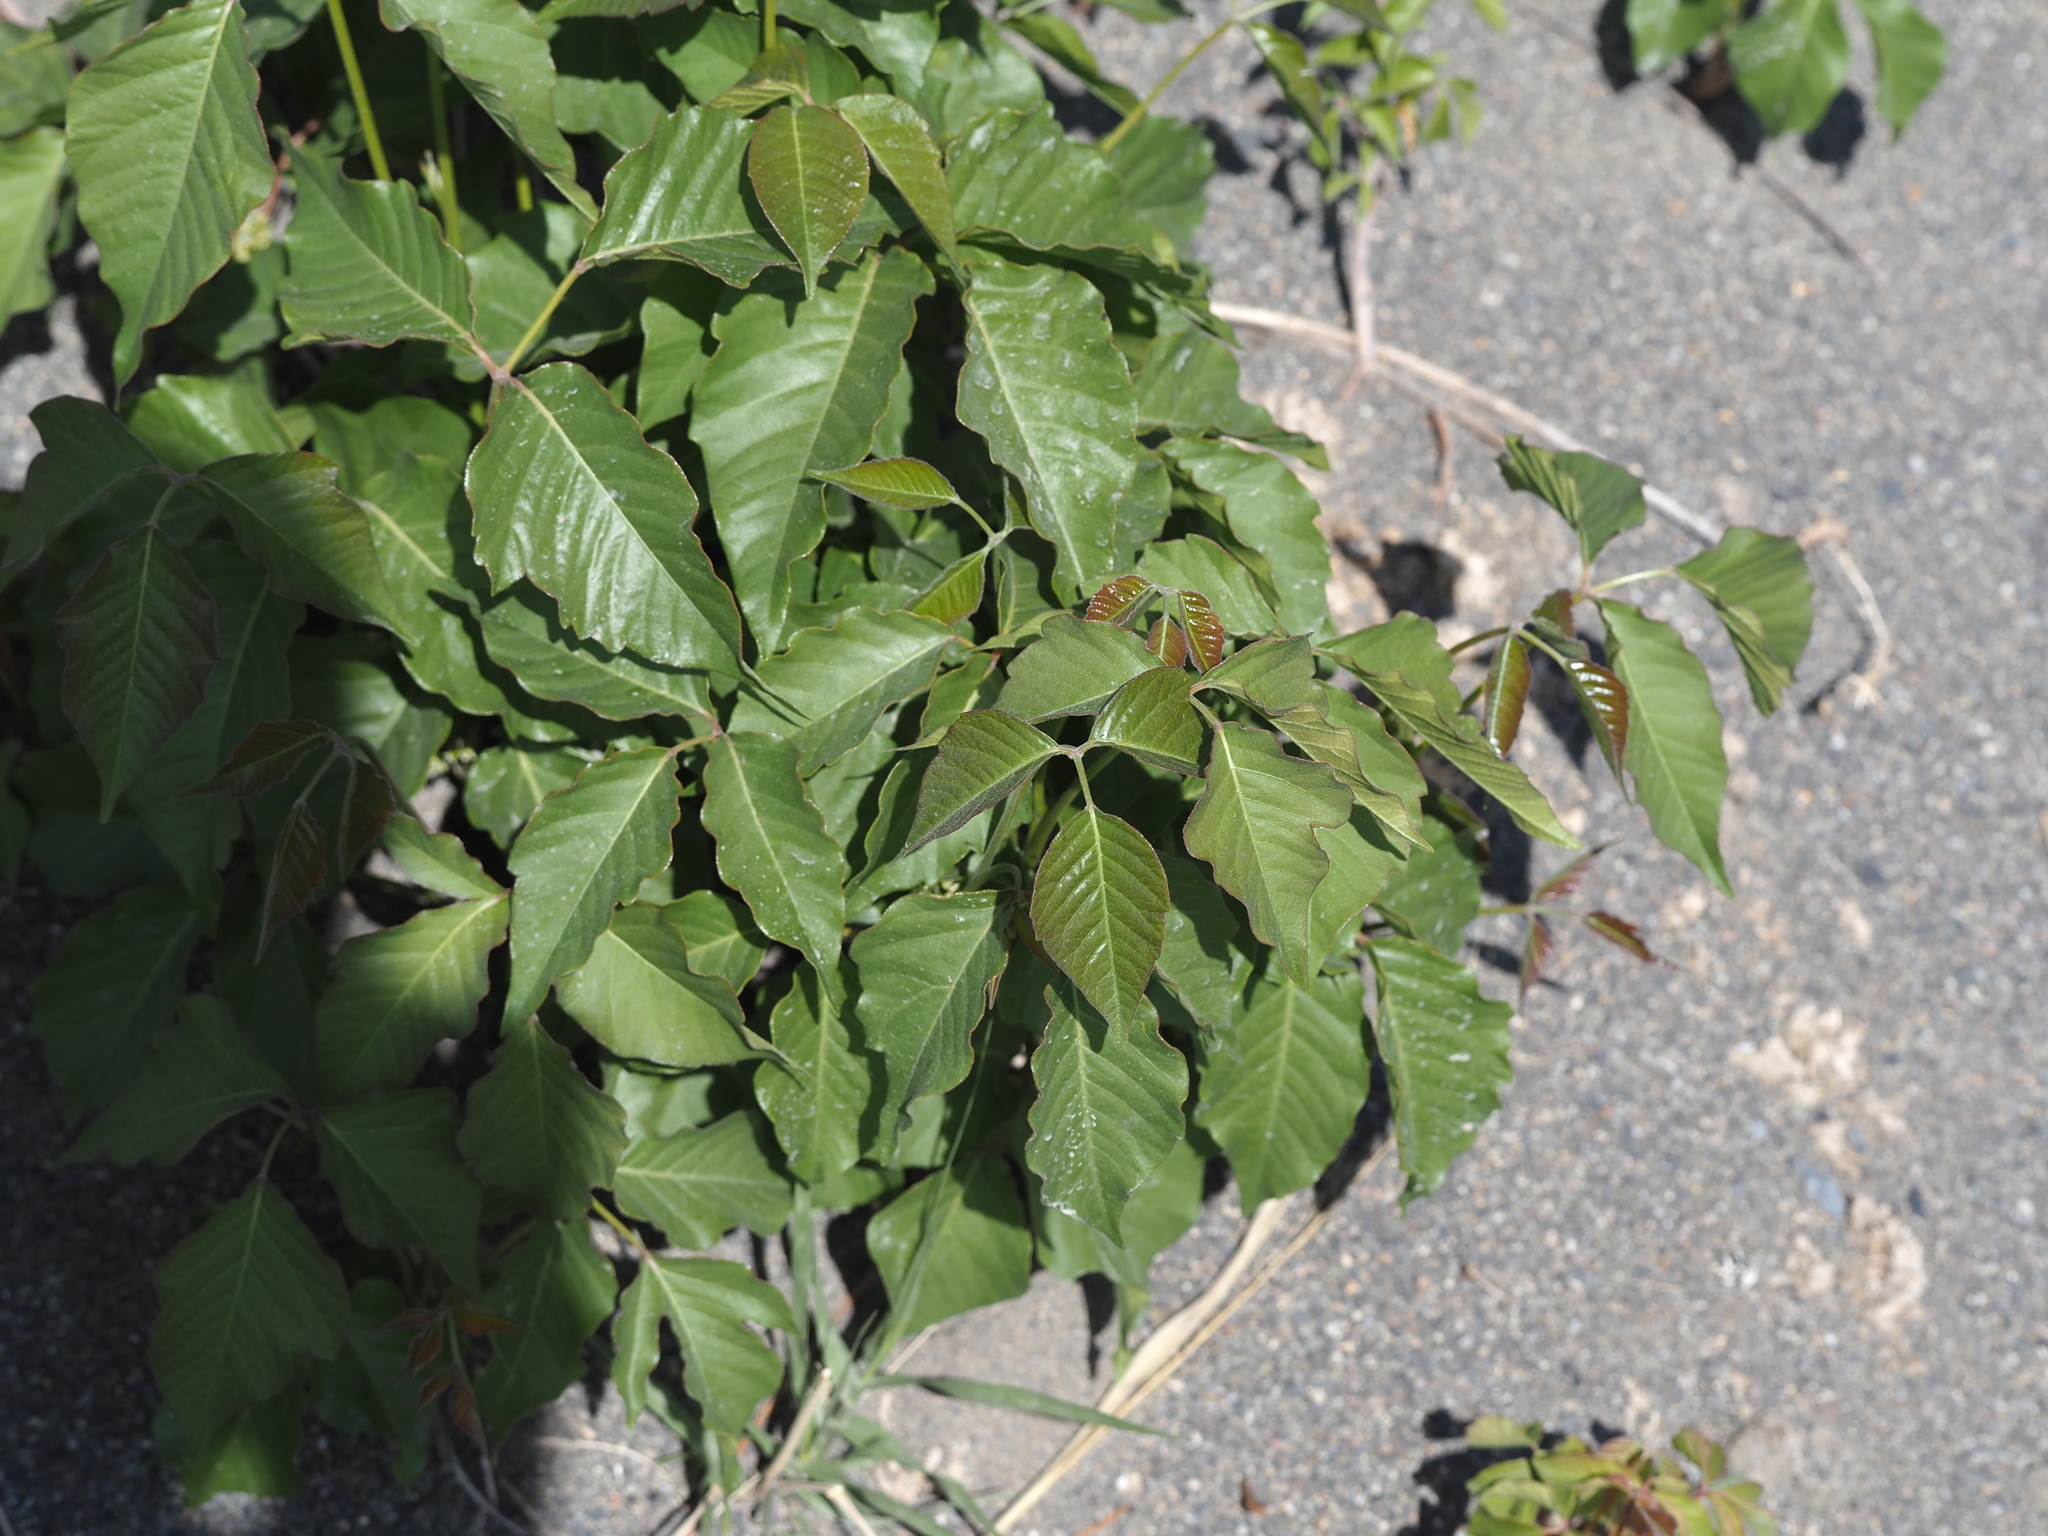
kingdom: Plantae
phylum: Tracheophyta
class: Magnoliopsida
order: Sapindales
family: Anacardiaceae
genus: Toxicodendron
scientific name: Toxicodendron rydbergii
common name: Rydberg's poison-ivy
